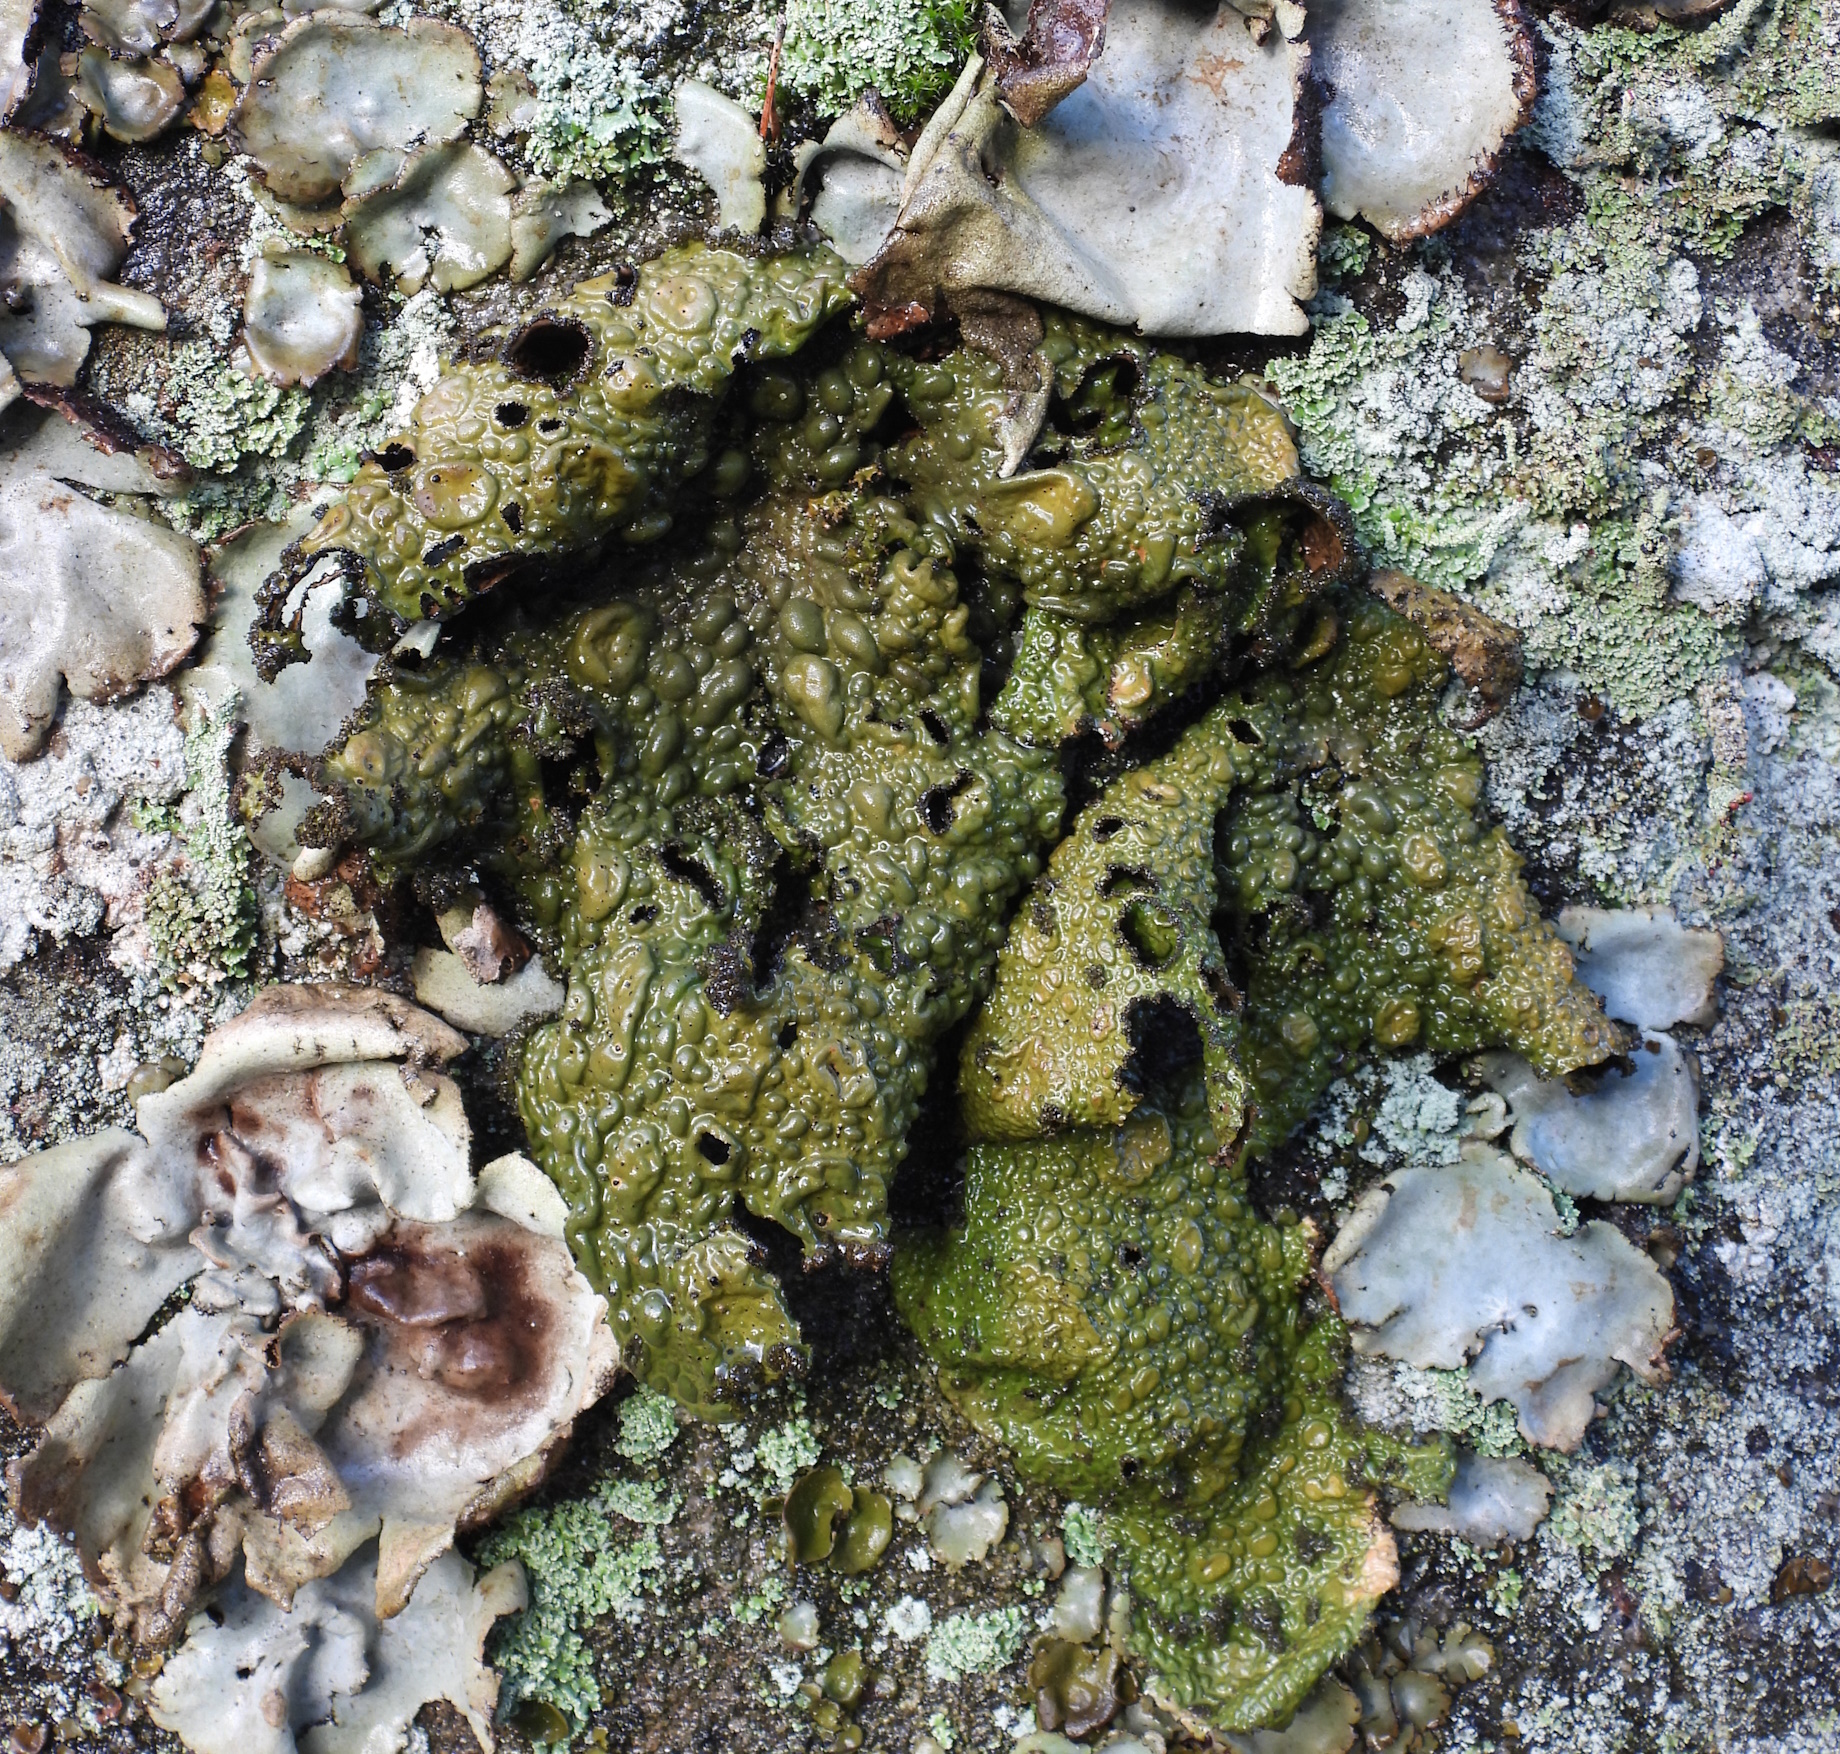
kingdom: Fungi
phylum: Ascomycota
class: Lecanoromycetes
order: Umbilicariales
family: Umbilicariaceae
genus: Lasallia
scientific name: Lasallia pustulata
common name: Blistered toadskin lichen
